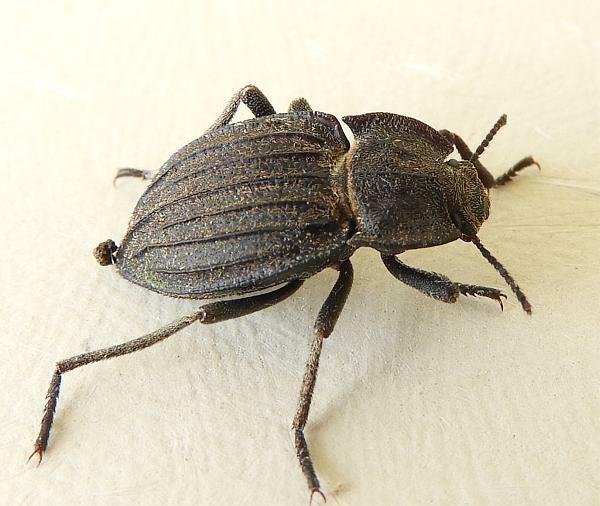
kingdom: Animalia
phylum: Arthropoda
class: Insecta
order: Coleoptera
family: Tenebrionidae
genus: Pelecyphorus
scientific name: Pelecyphorus liratus
